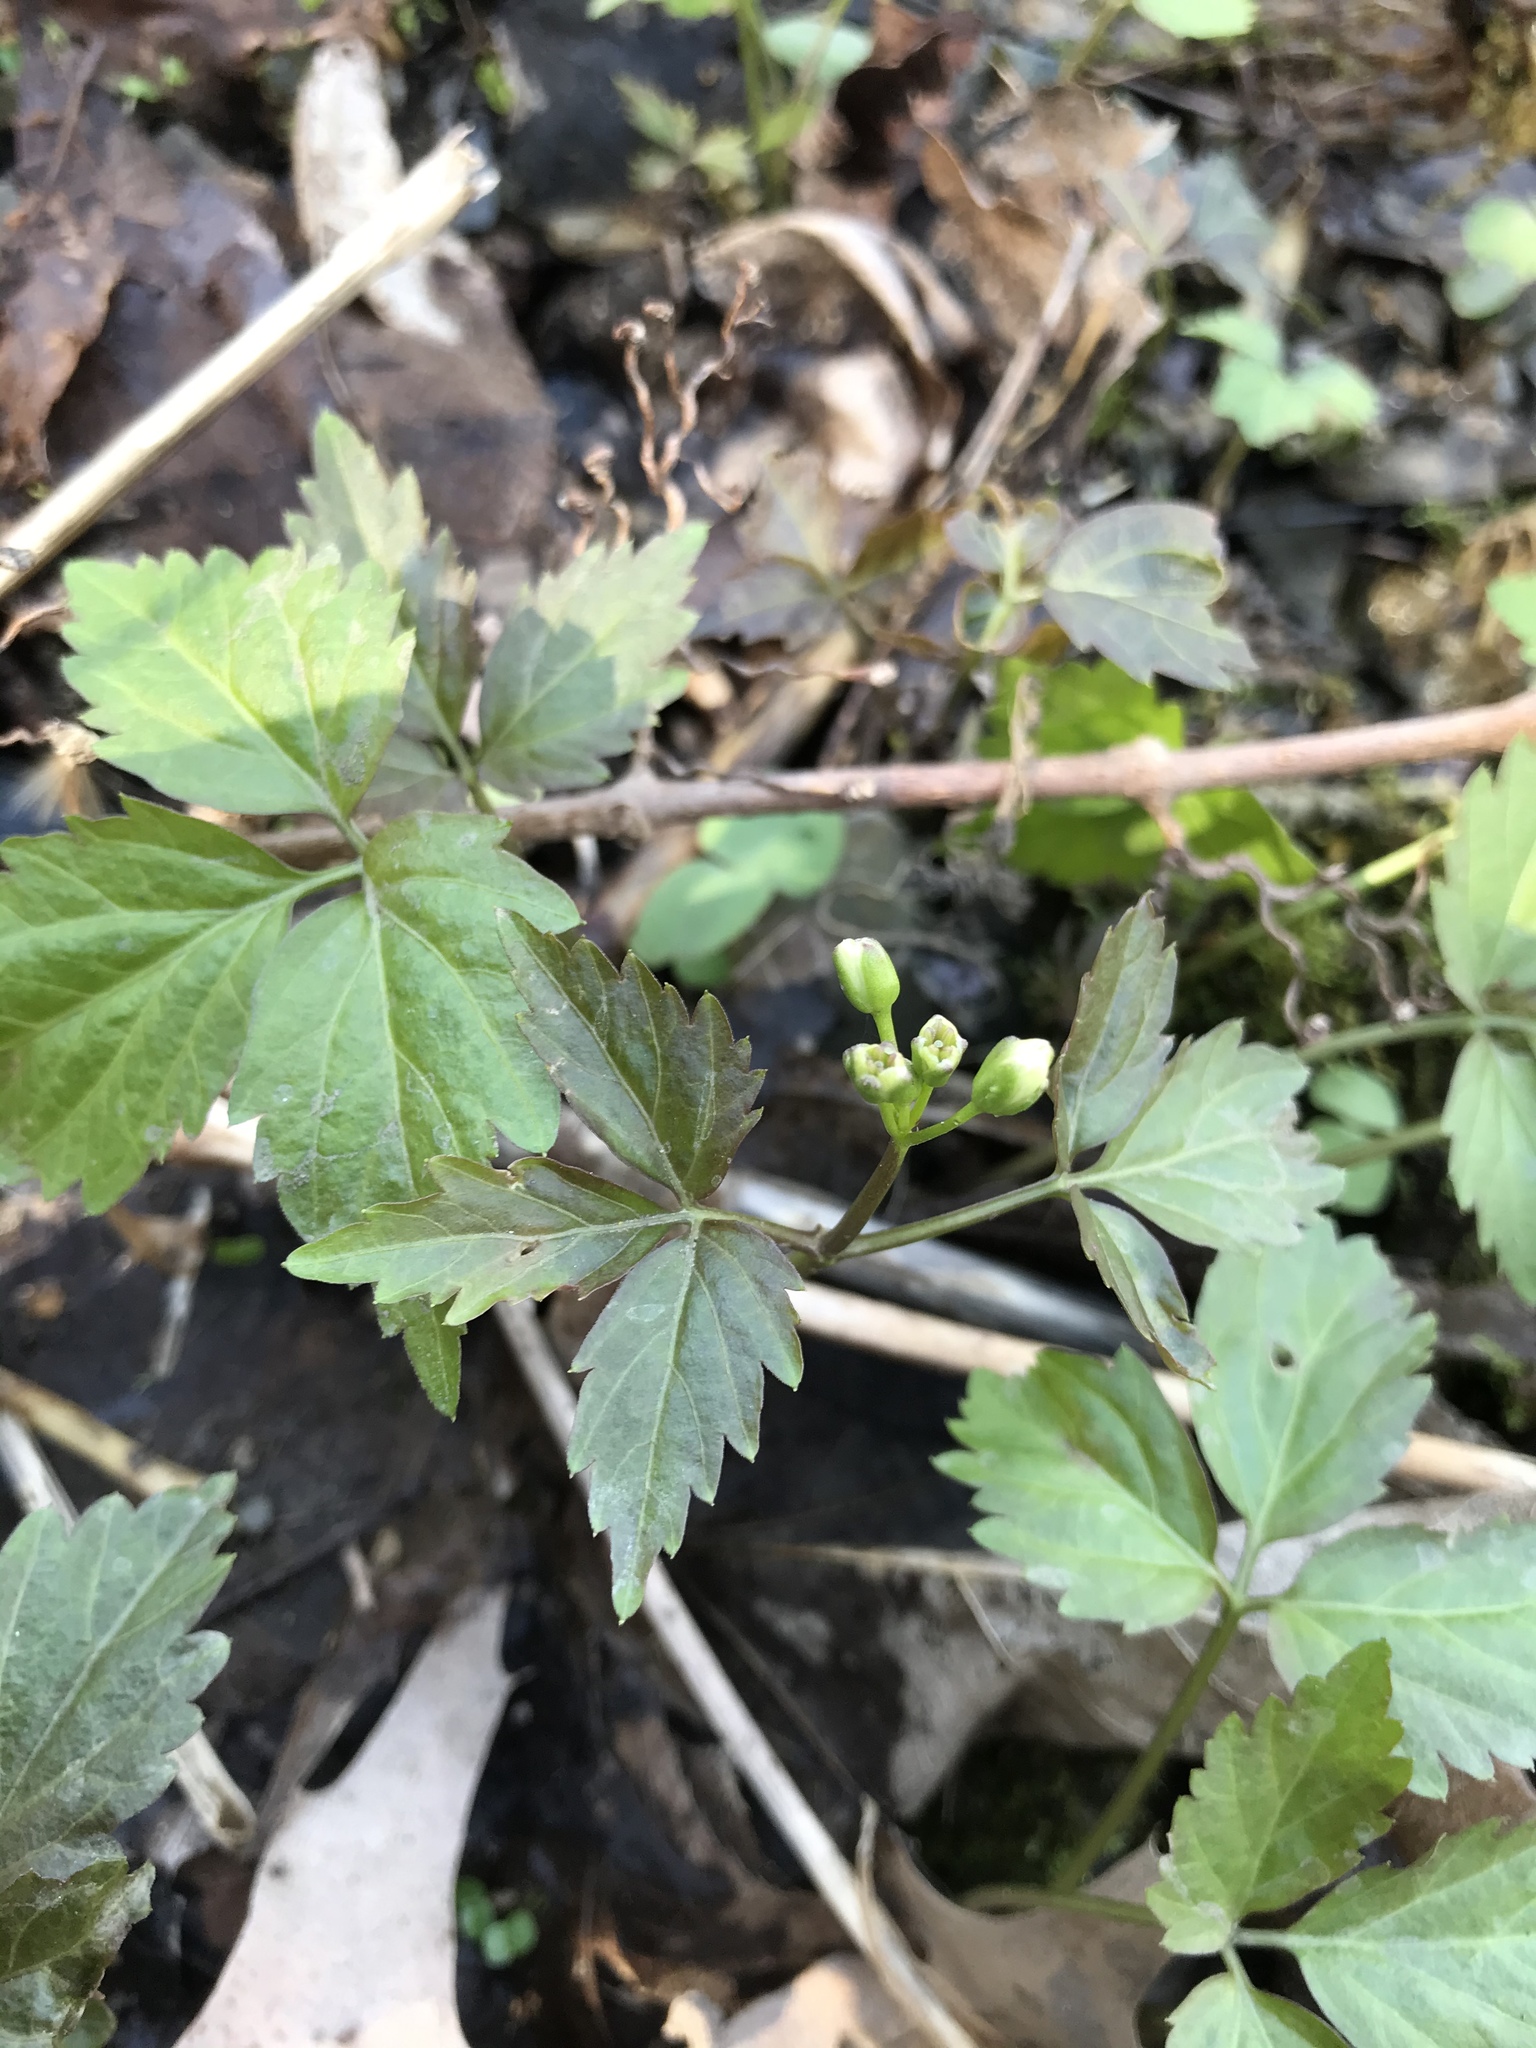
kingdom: Plantae
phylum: Tracheophyta
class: Magnoliopsida
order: Brassicales
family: Brassicaceae
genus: Cardamine
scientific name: Cardamine diphylla
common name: Broad-leaved toothwort
